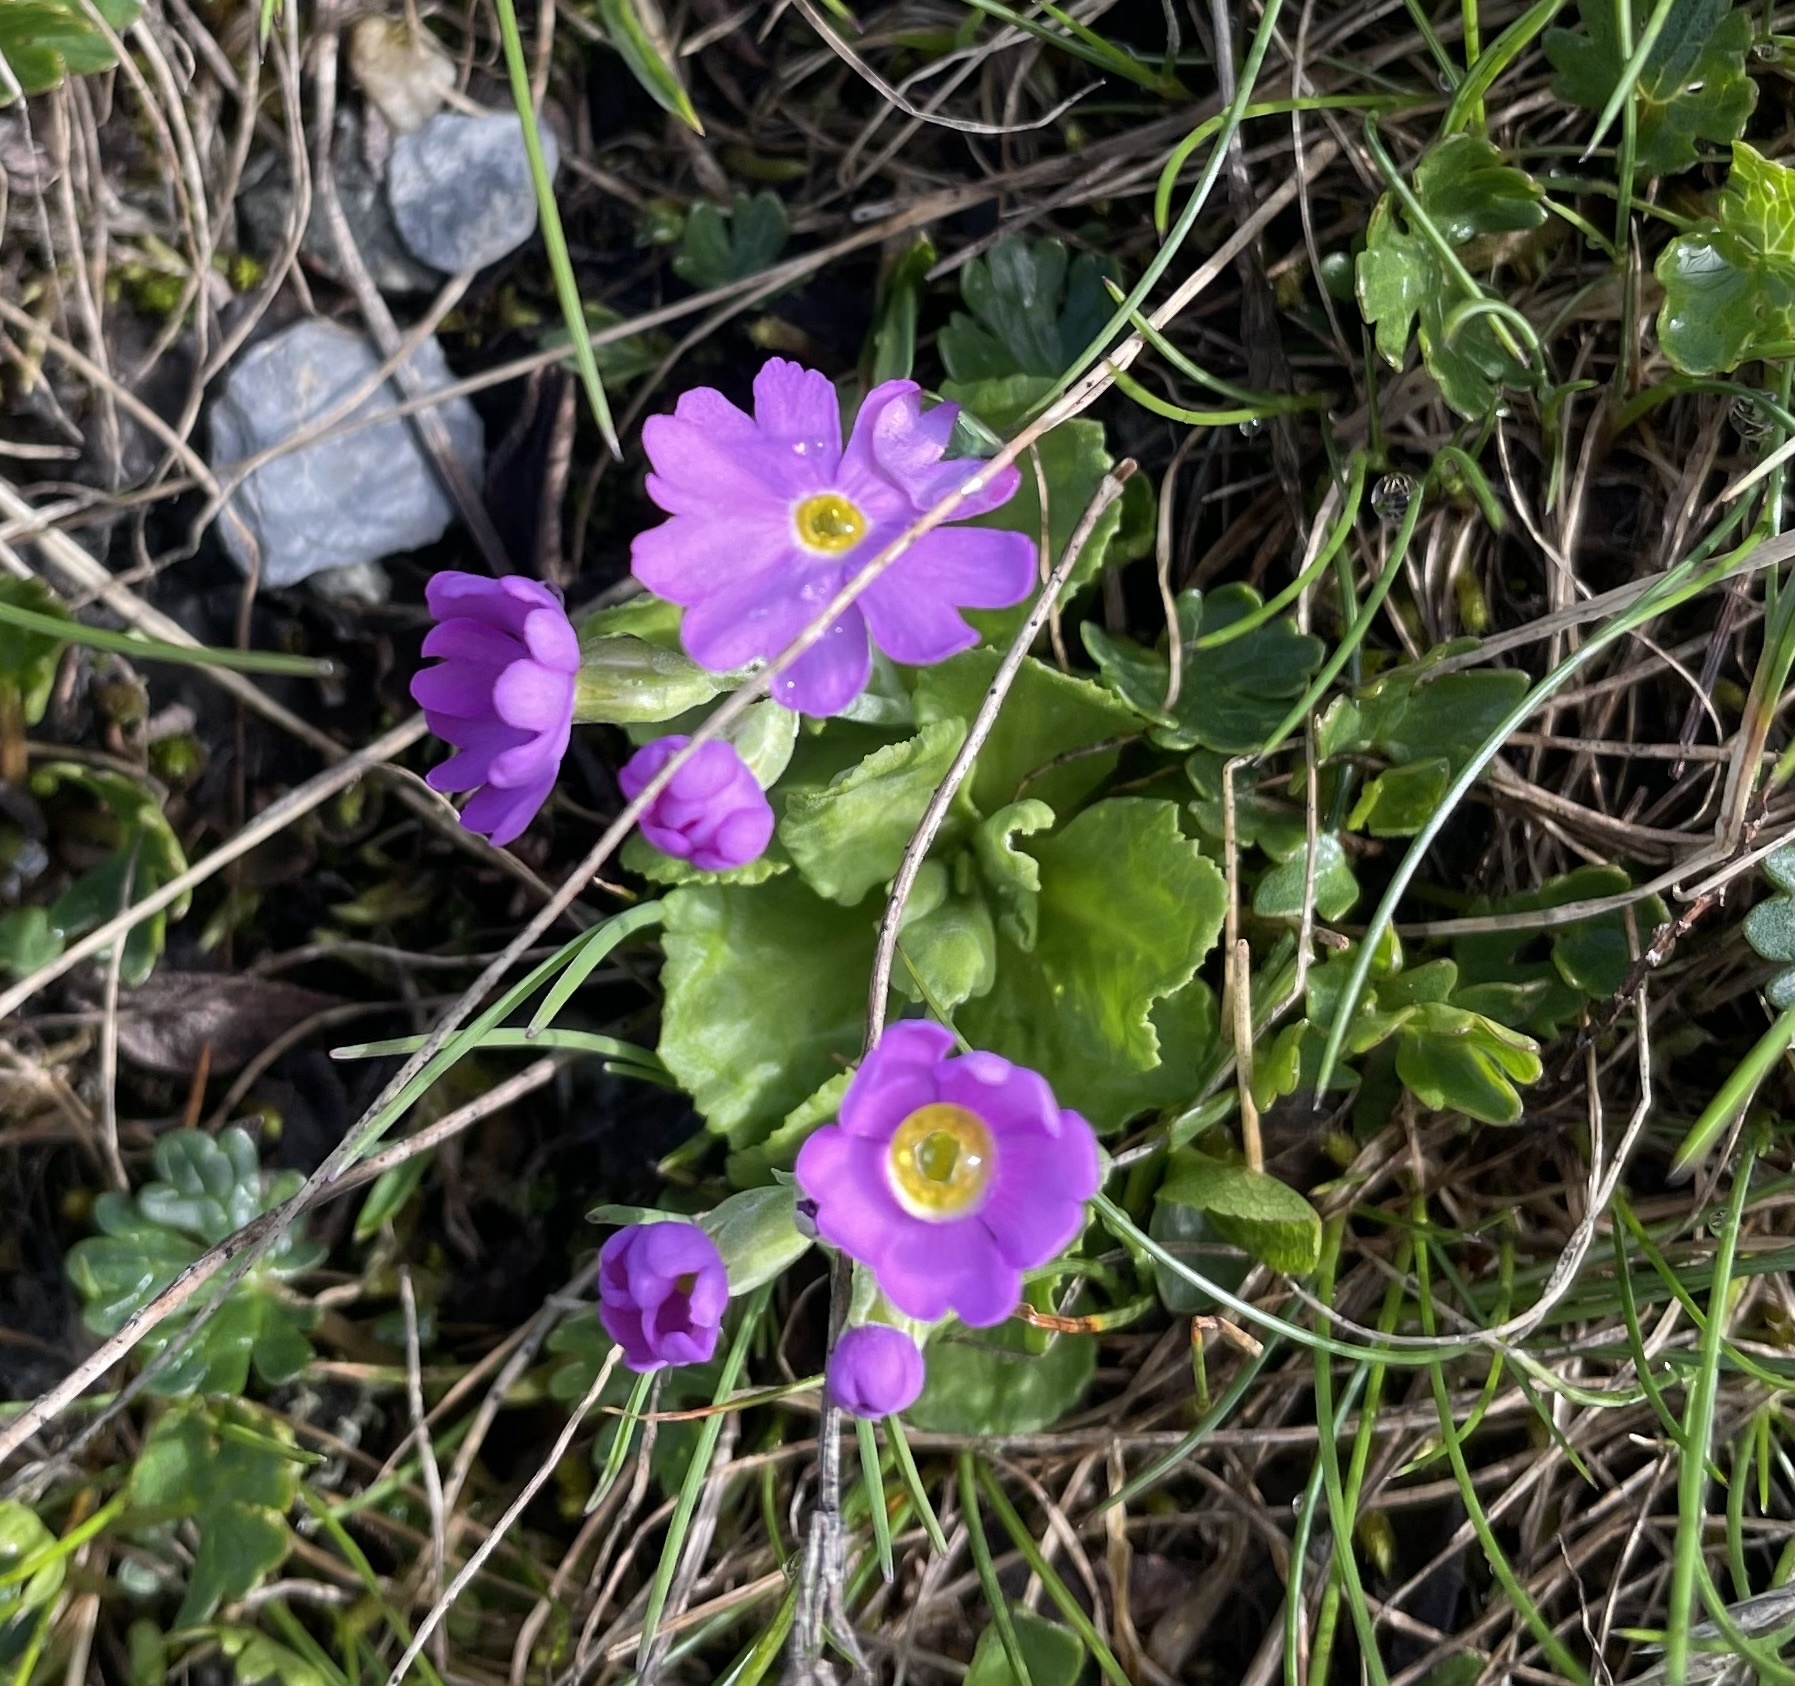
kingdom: Plantae
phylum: Tracheophyta
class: Magnoliopsida
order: Ericales
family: Primulaceae
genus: Primula
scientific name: Primula farinosa
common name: Bird's-eye primrose
